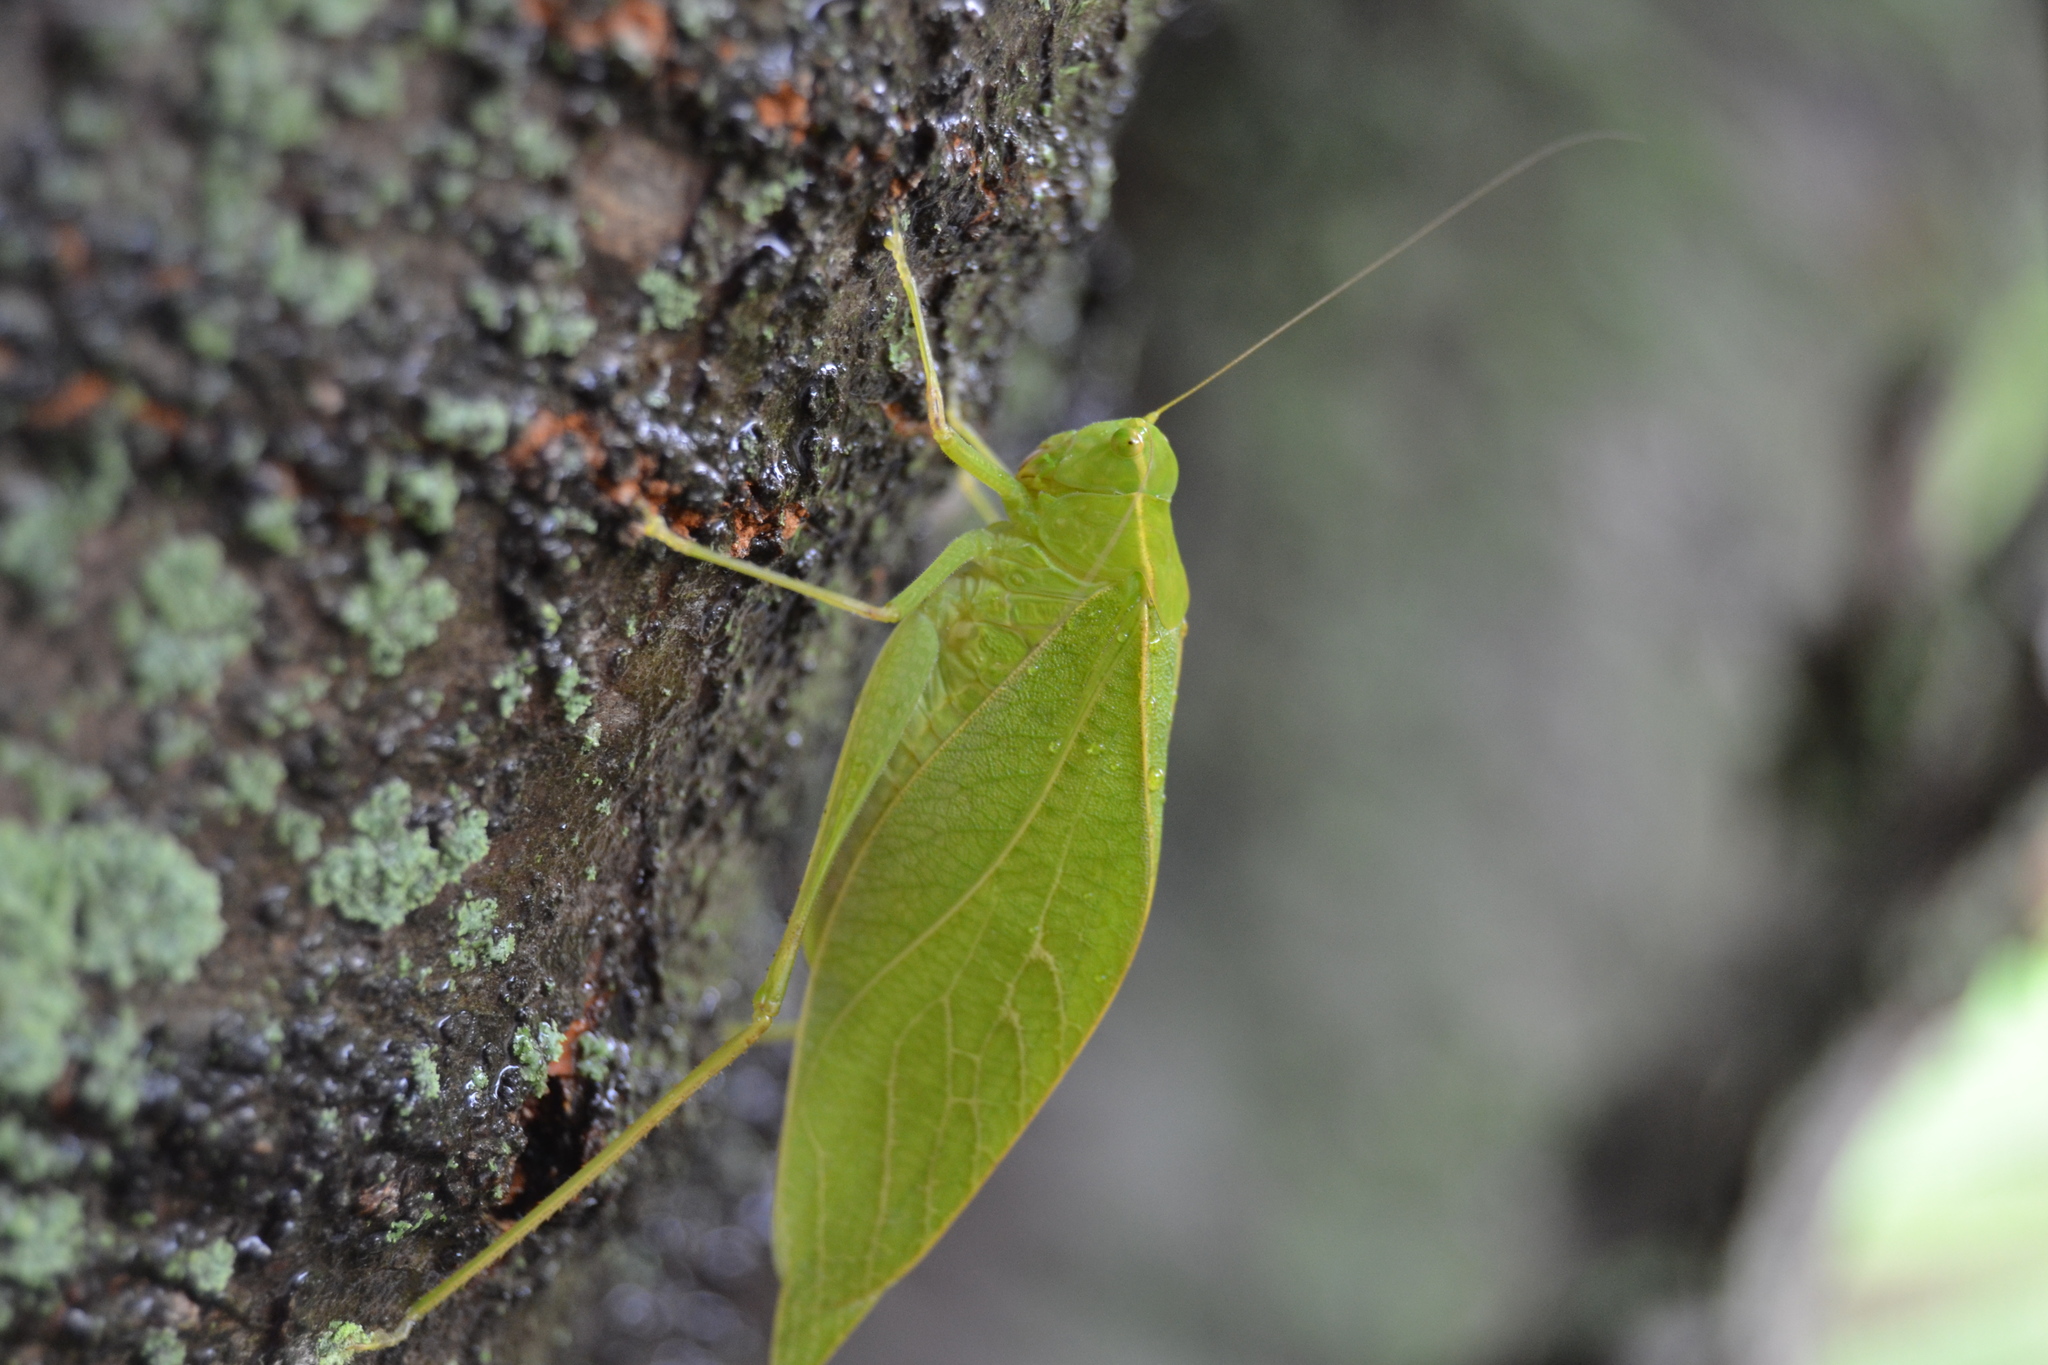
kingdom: Animalia
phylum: Arthropoda
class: Insecta
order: Orthoptera
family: Tettigoniidae
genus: Microcentrum
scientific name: Microcentrum retinerve
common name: Angular-winged katydid
